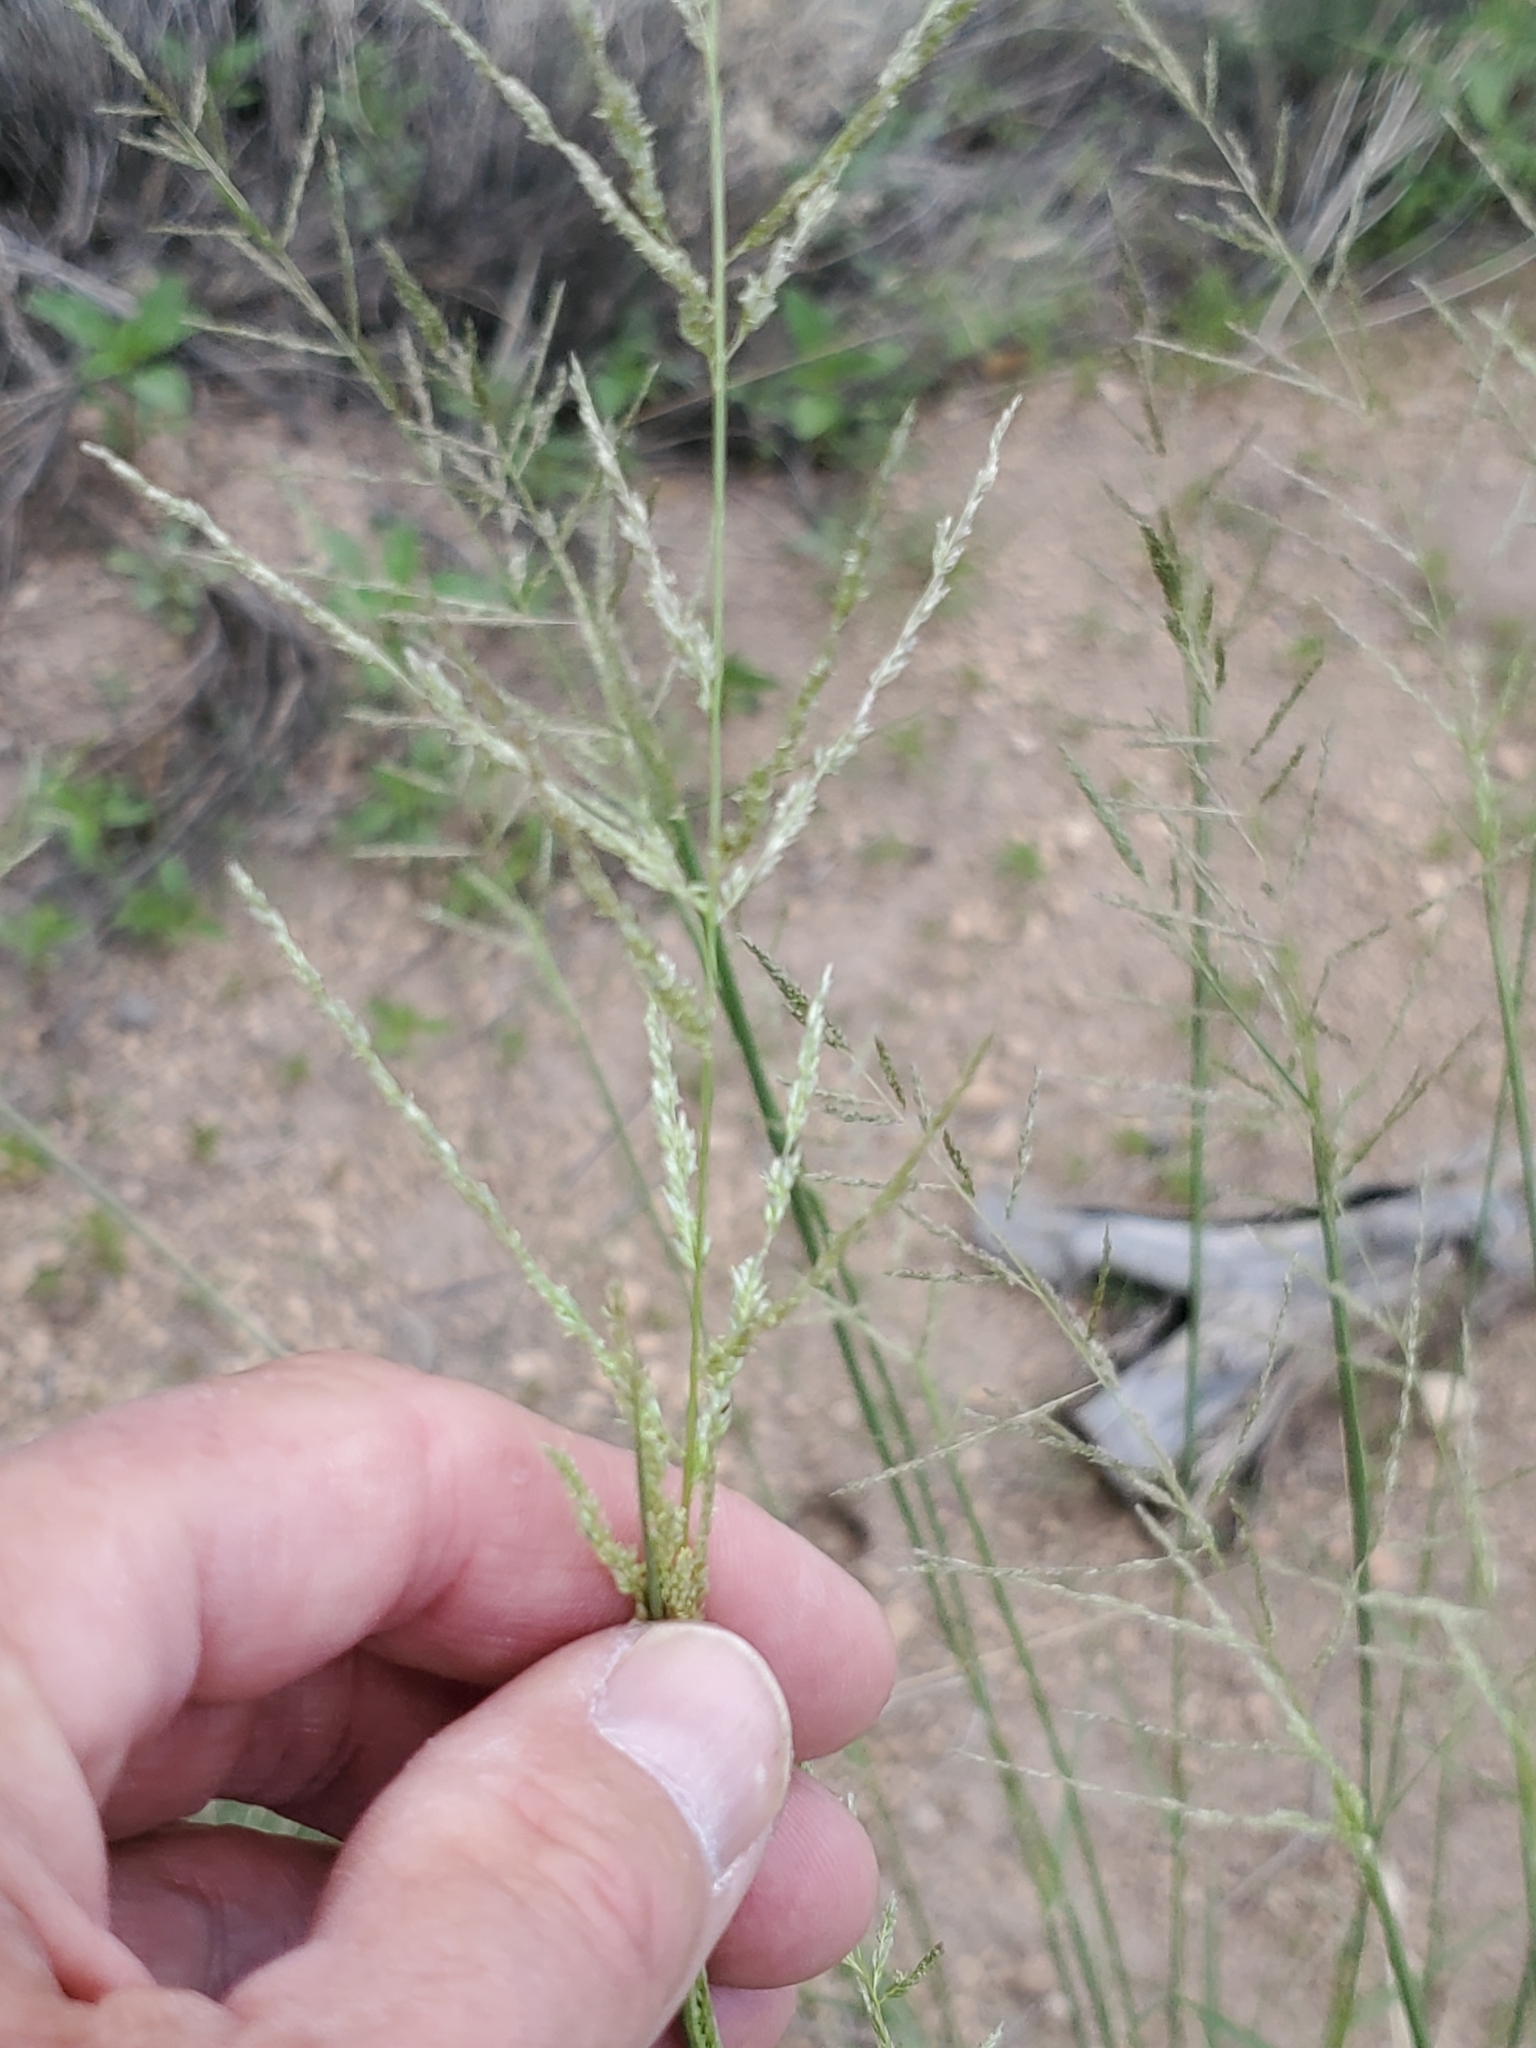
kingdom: Plantae
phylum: Tracheophyta
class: Liliopsida
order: Poales
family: Poaceae
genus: Sporobolus
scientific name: Sporobolus cryptandrus
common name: Sand dropseed
